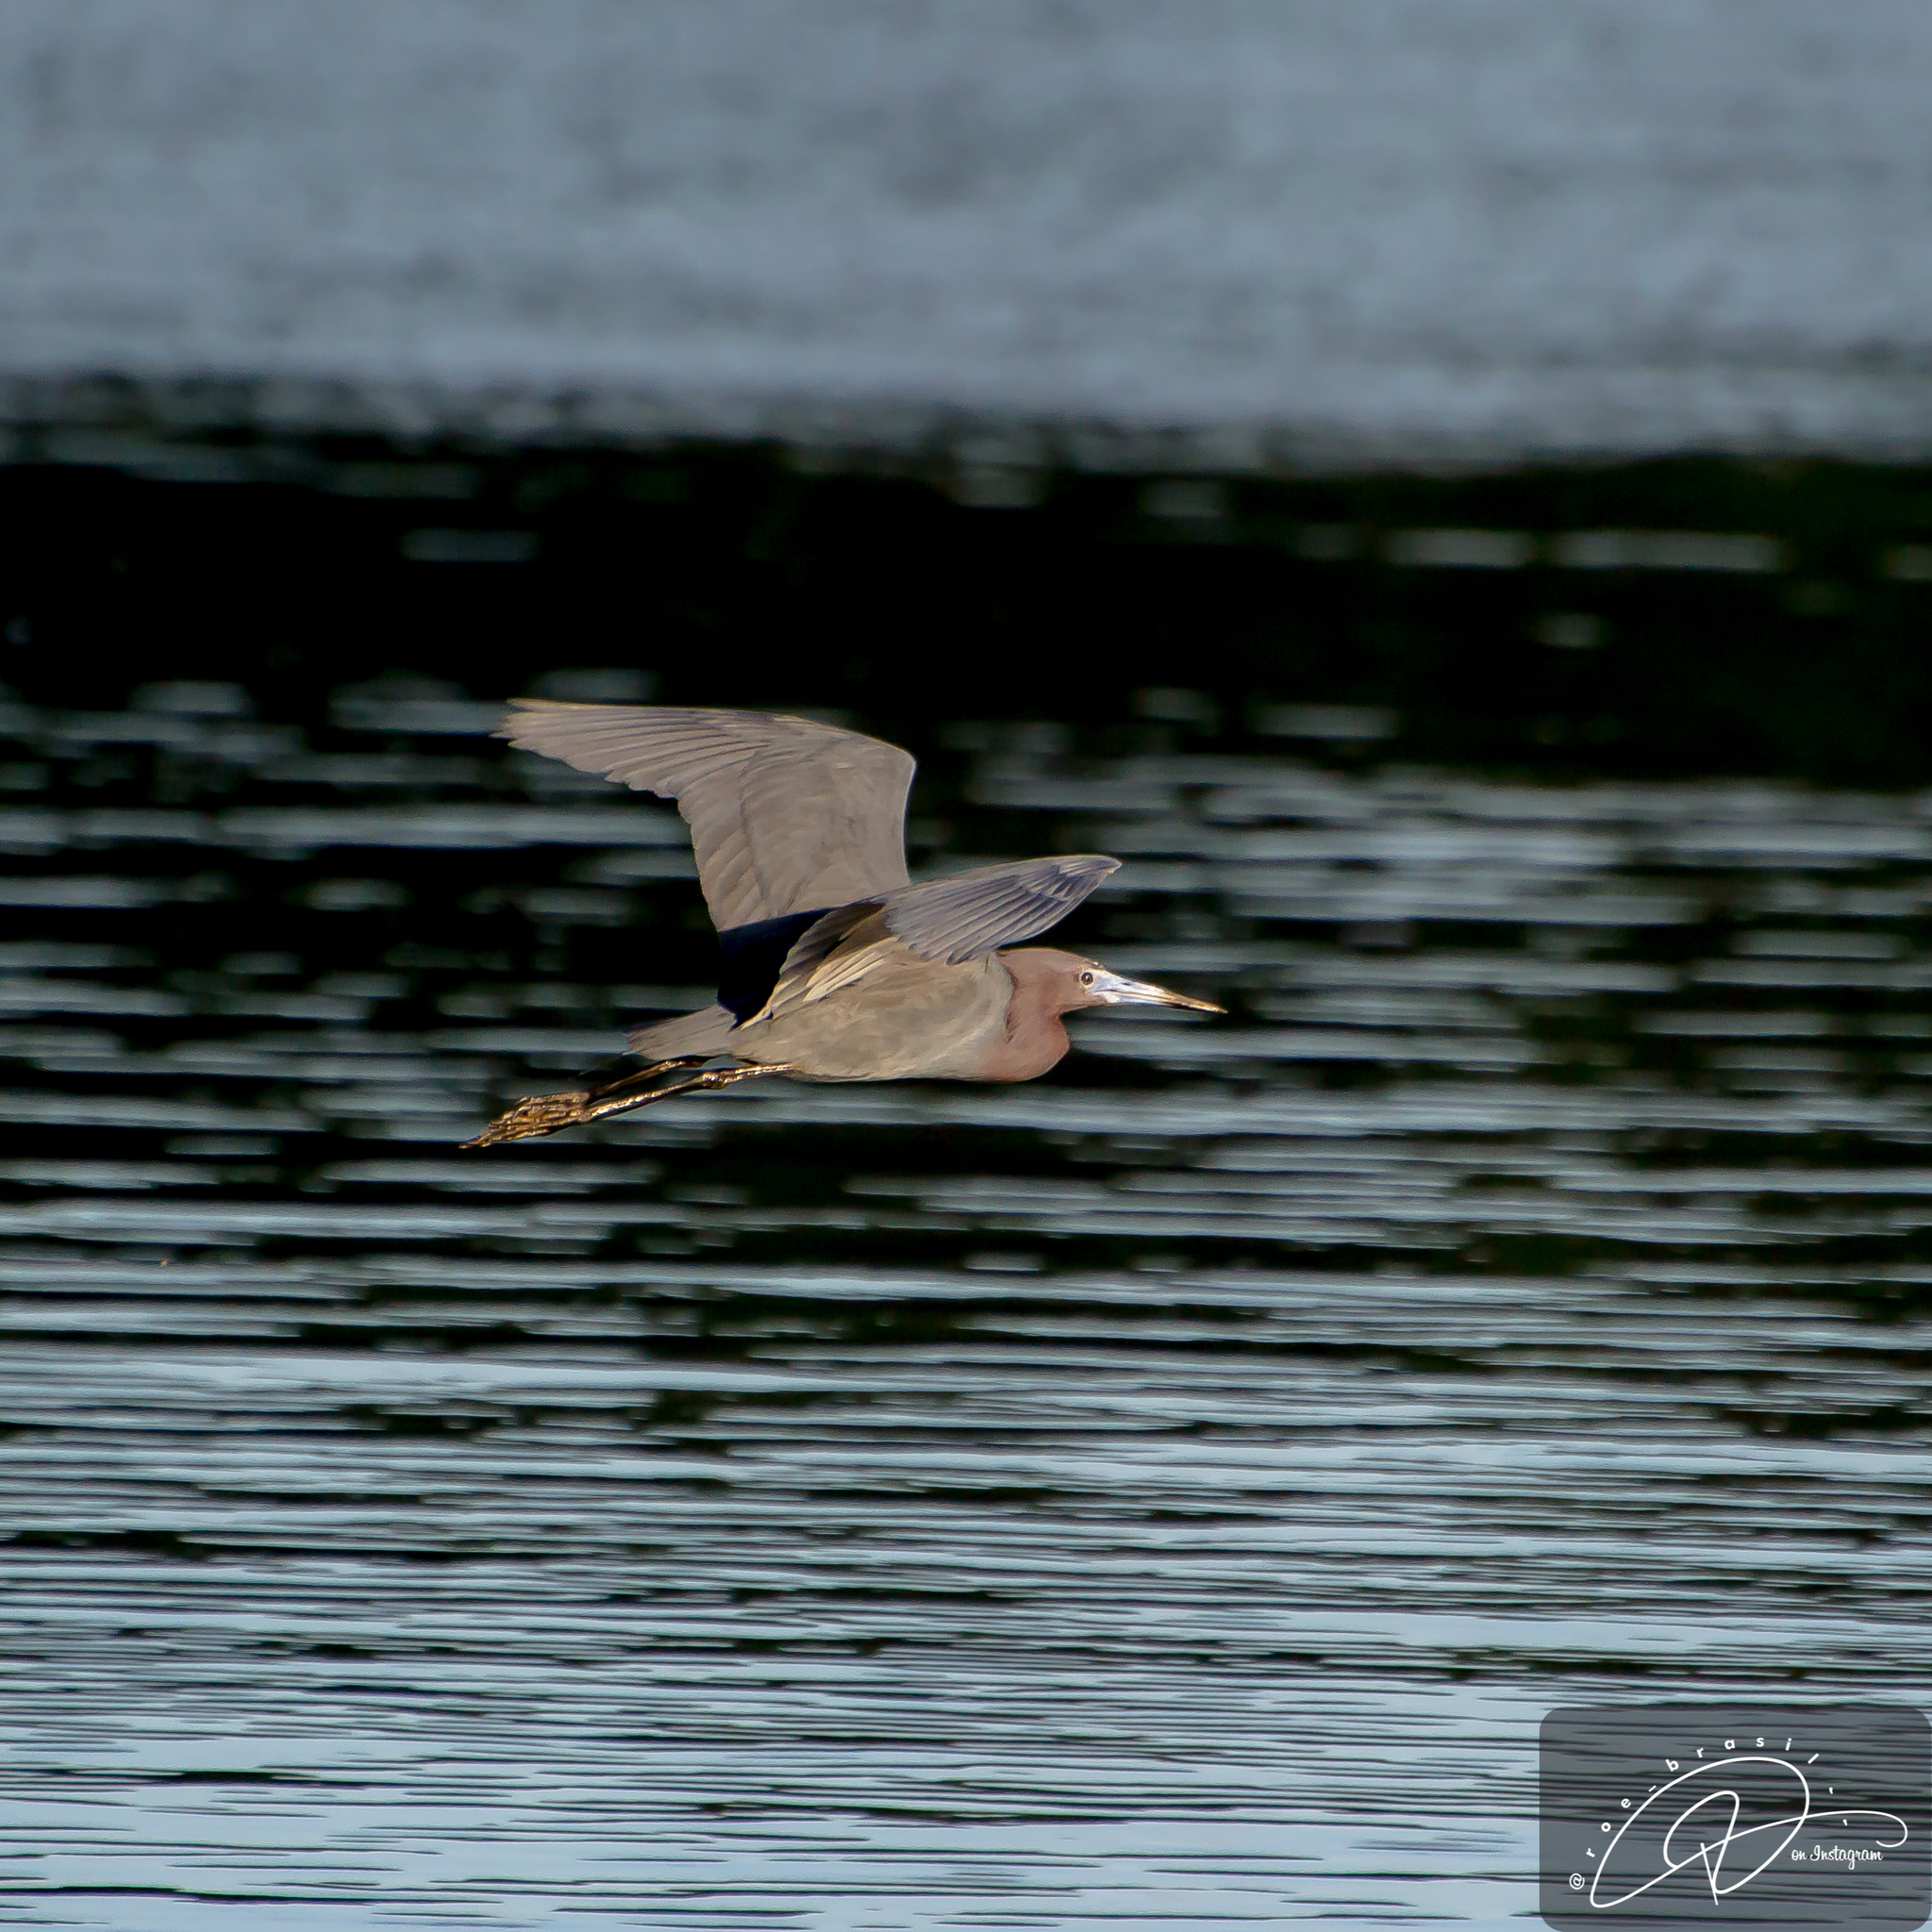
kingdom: Animalia
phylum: Chordata
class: Aves
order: Pelecaniformes
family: Ardeidae
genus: Egretta
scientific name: Egretta caerulea
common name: Little blue heron
